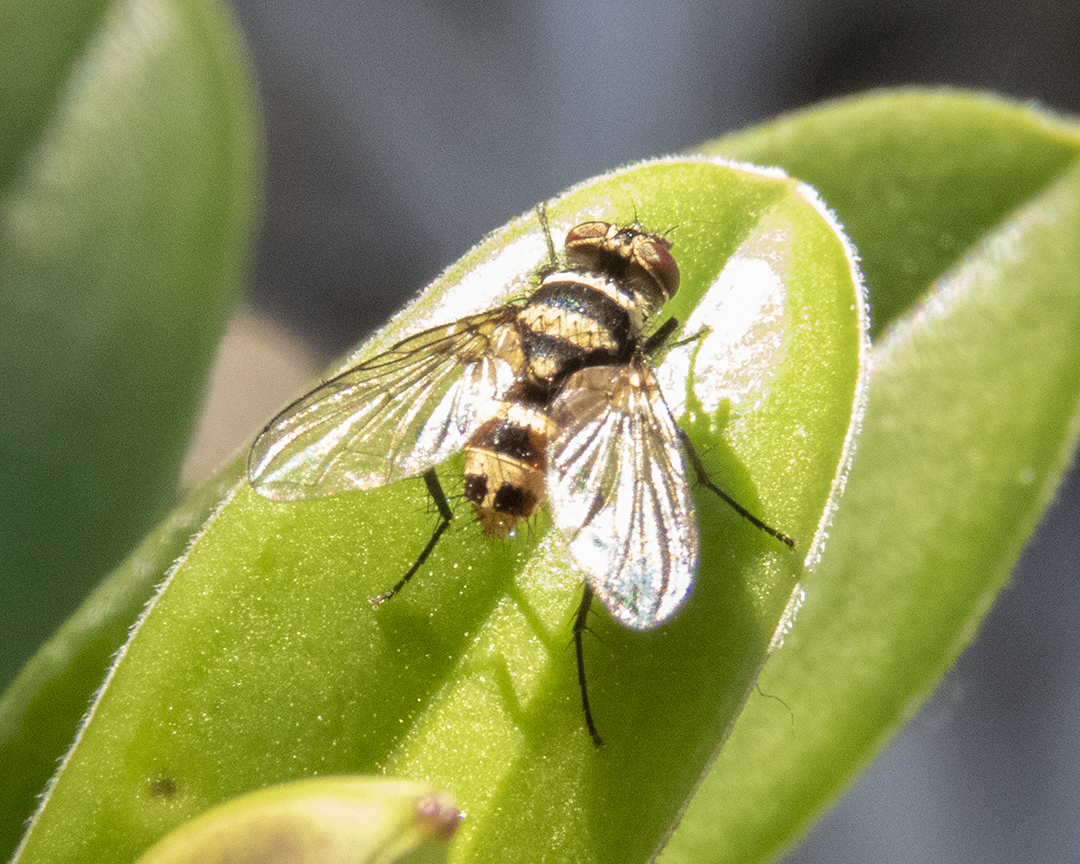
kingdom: Animalia
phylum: Arthropoda
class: Insecta
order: Diptera
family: Tachinidae
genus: Trigonospila
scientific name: Trigonospila brevifacies
